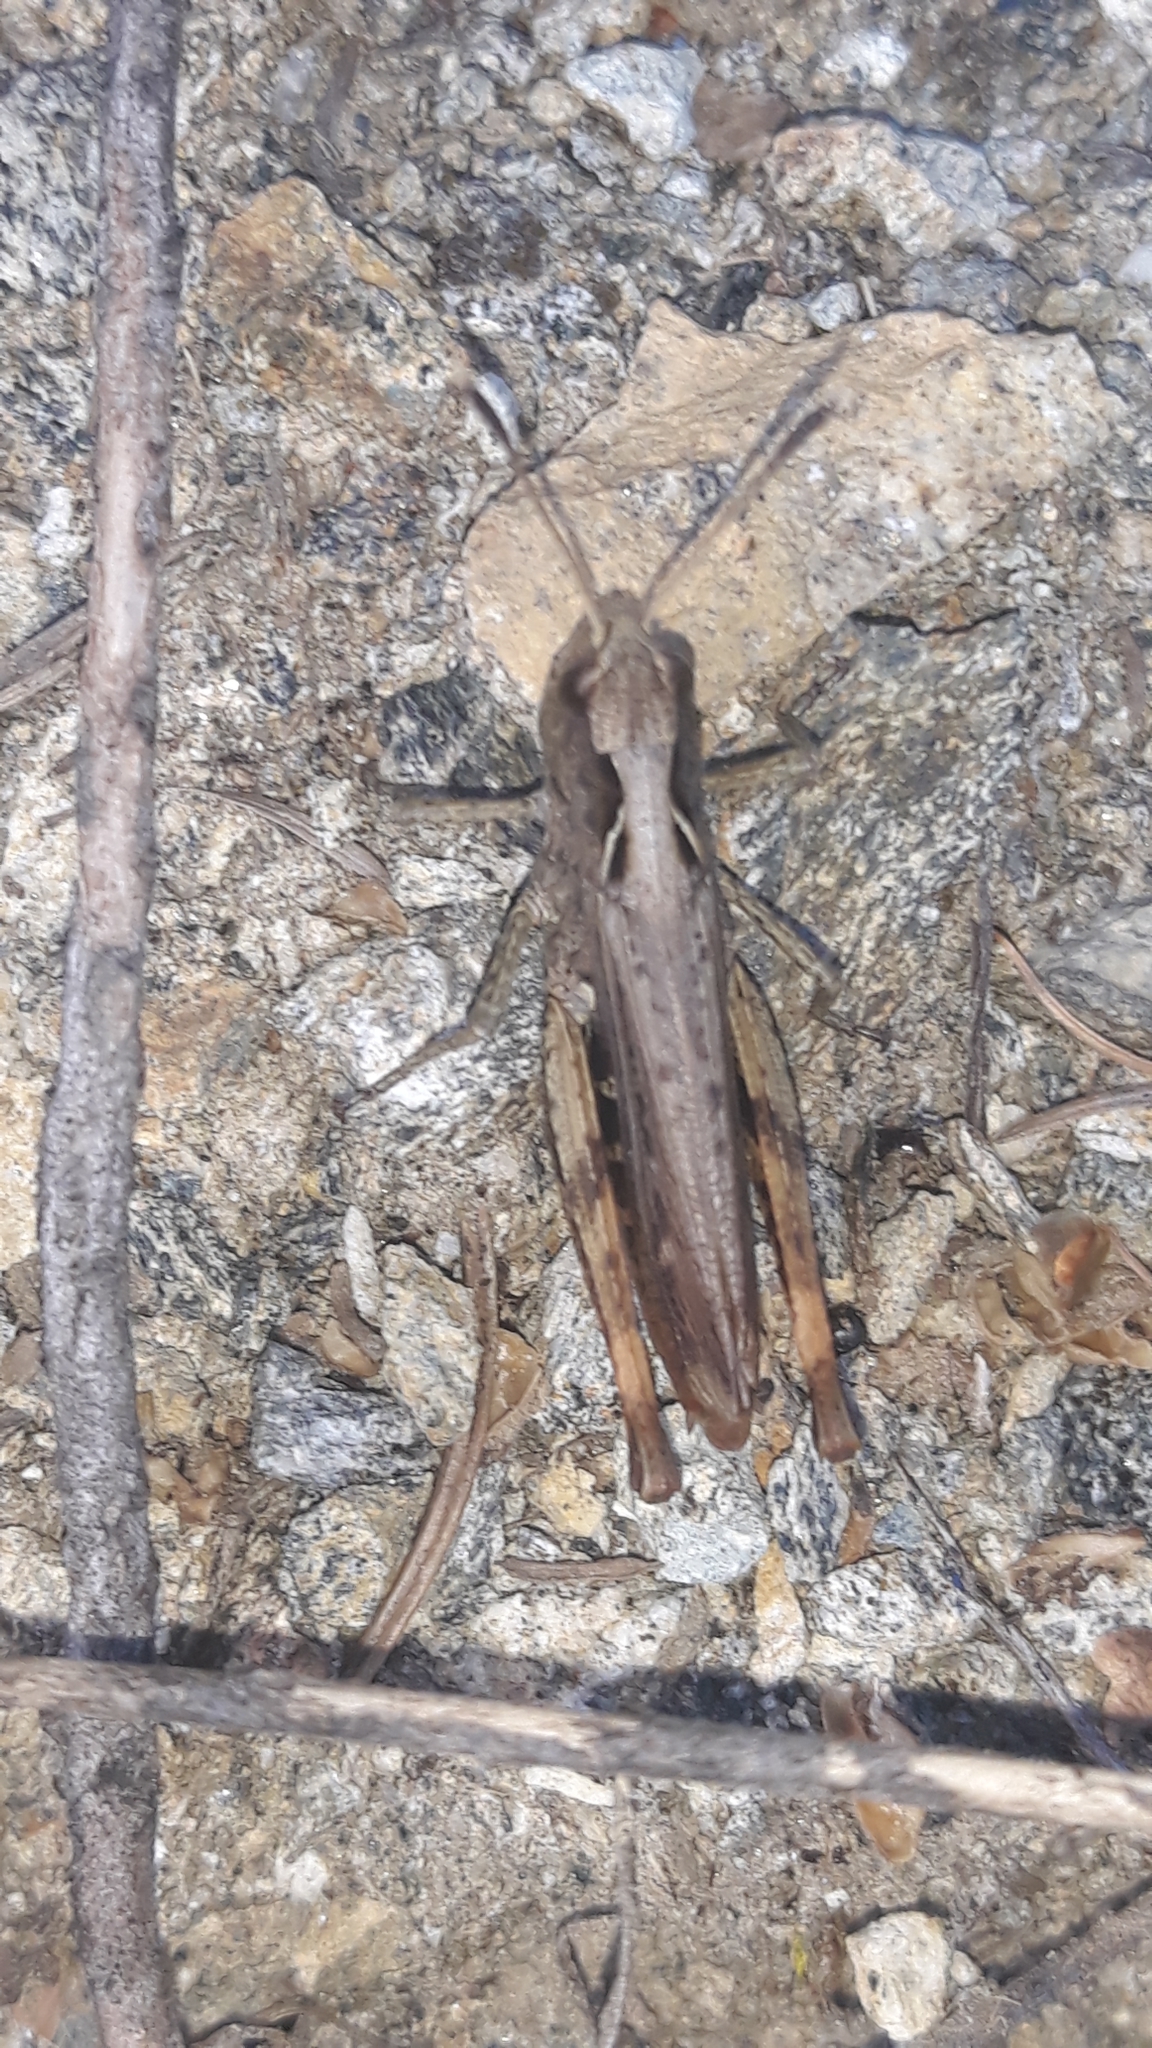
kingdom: Animalia
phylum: Arthropoda
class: Insecta
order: Orthoptera
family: Acrididae
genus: Gomphocerippus
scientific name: Gomphocerippus rufus
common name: Rufous grasshopper
